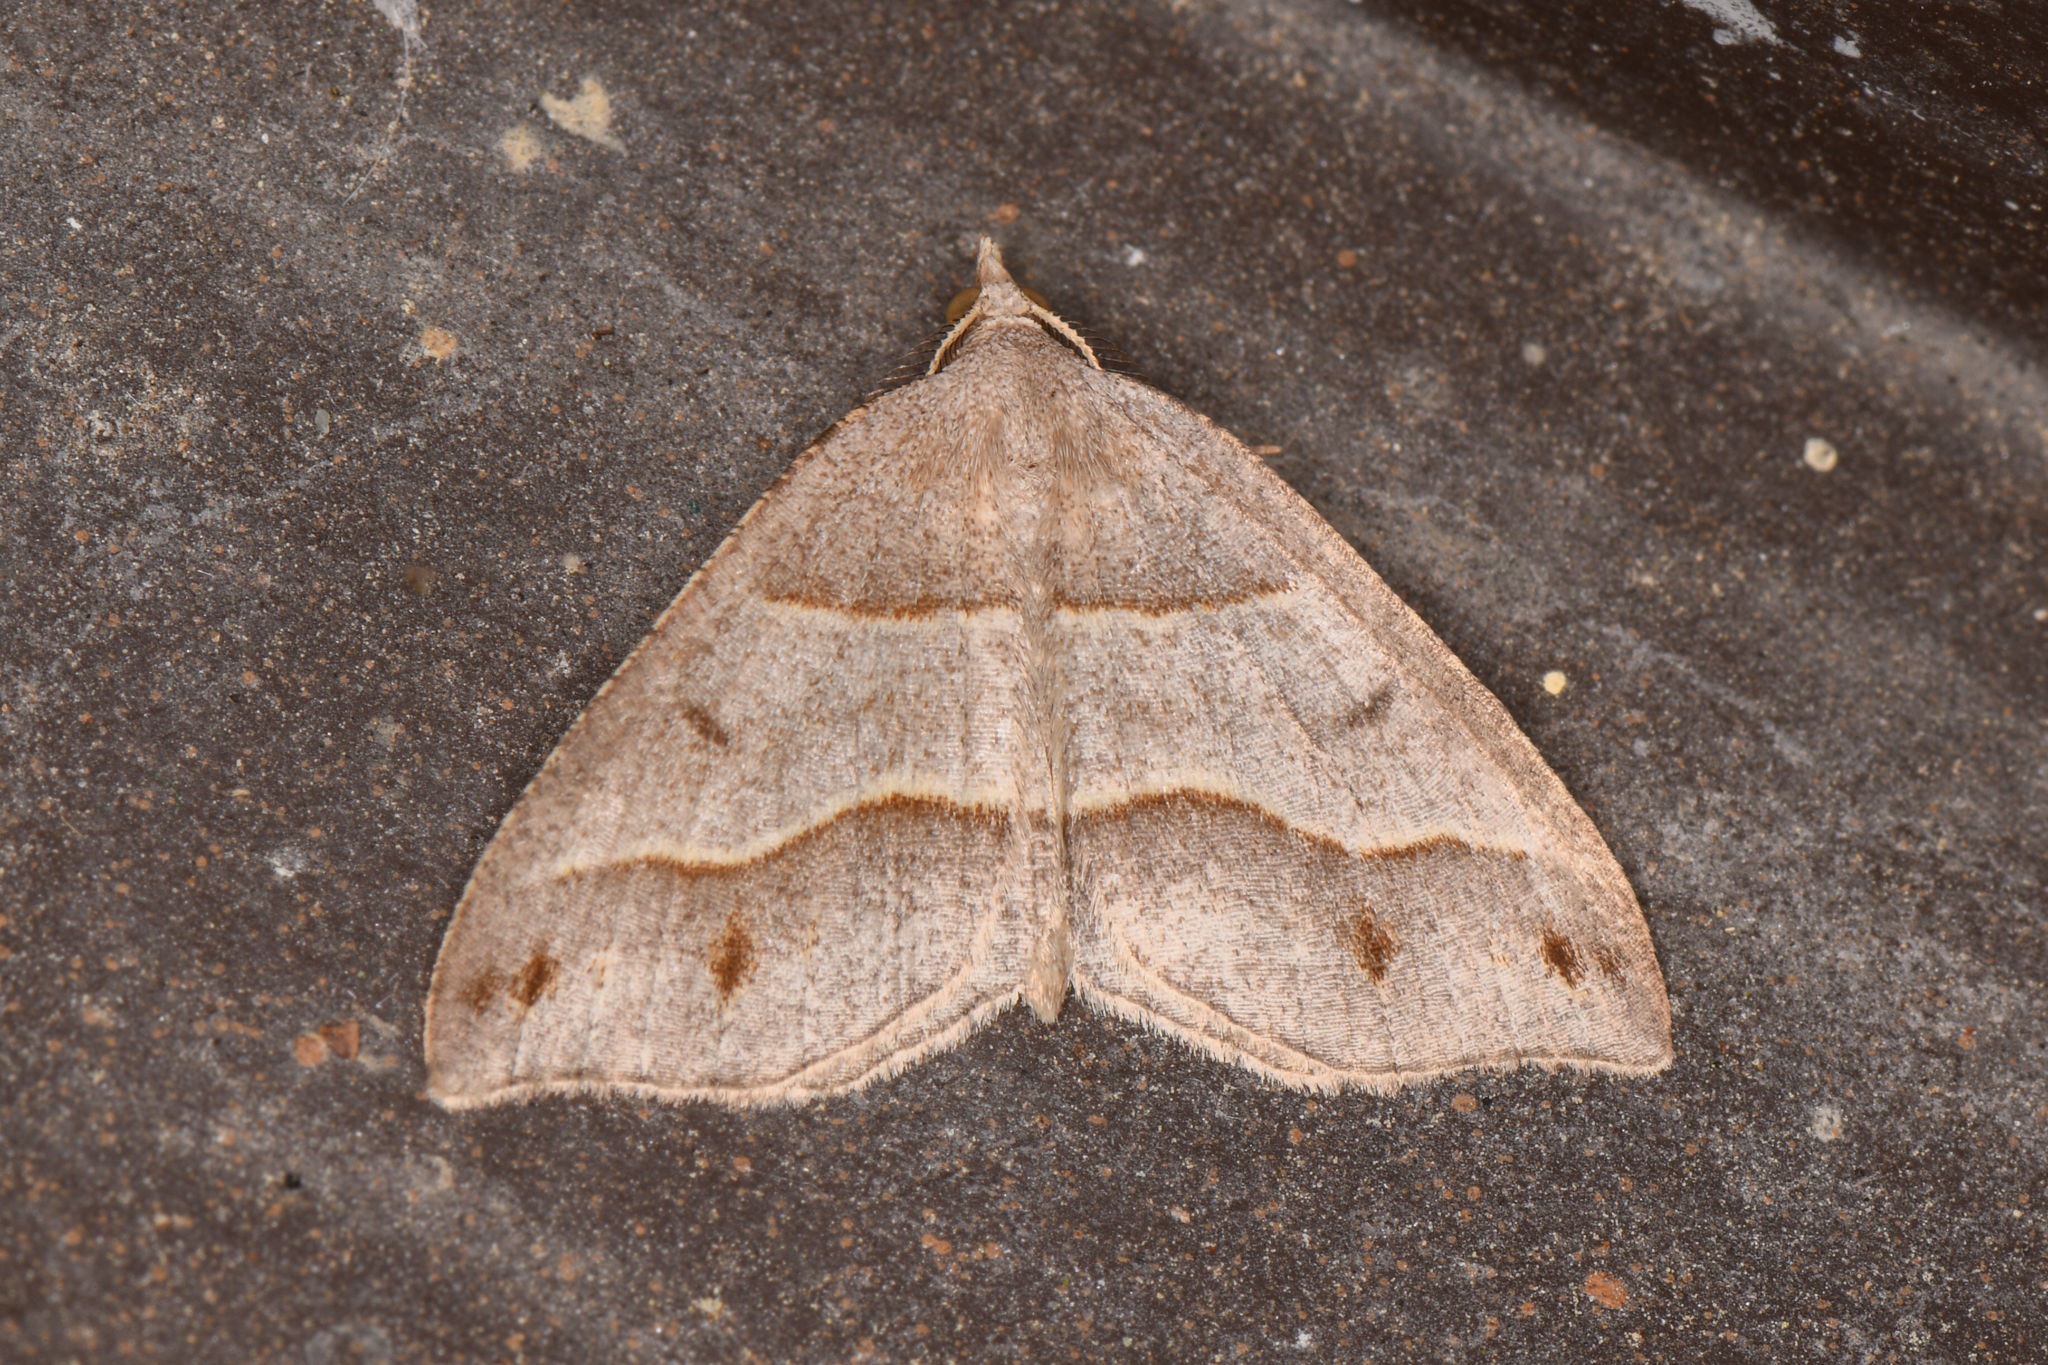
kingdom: Animalia
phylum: Arthropoda
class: Insecta
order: Lepidoptera
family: Geometridae
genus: Macaria
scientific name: Macaria lorquinaria
